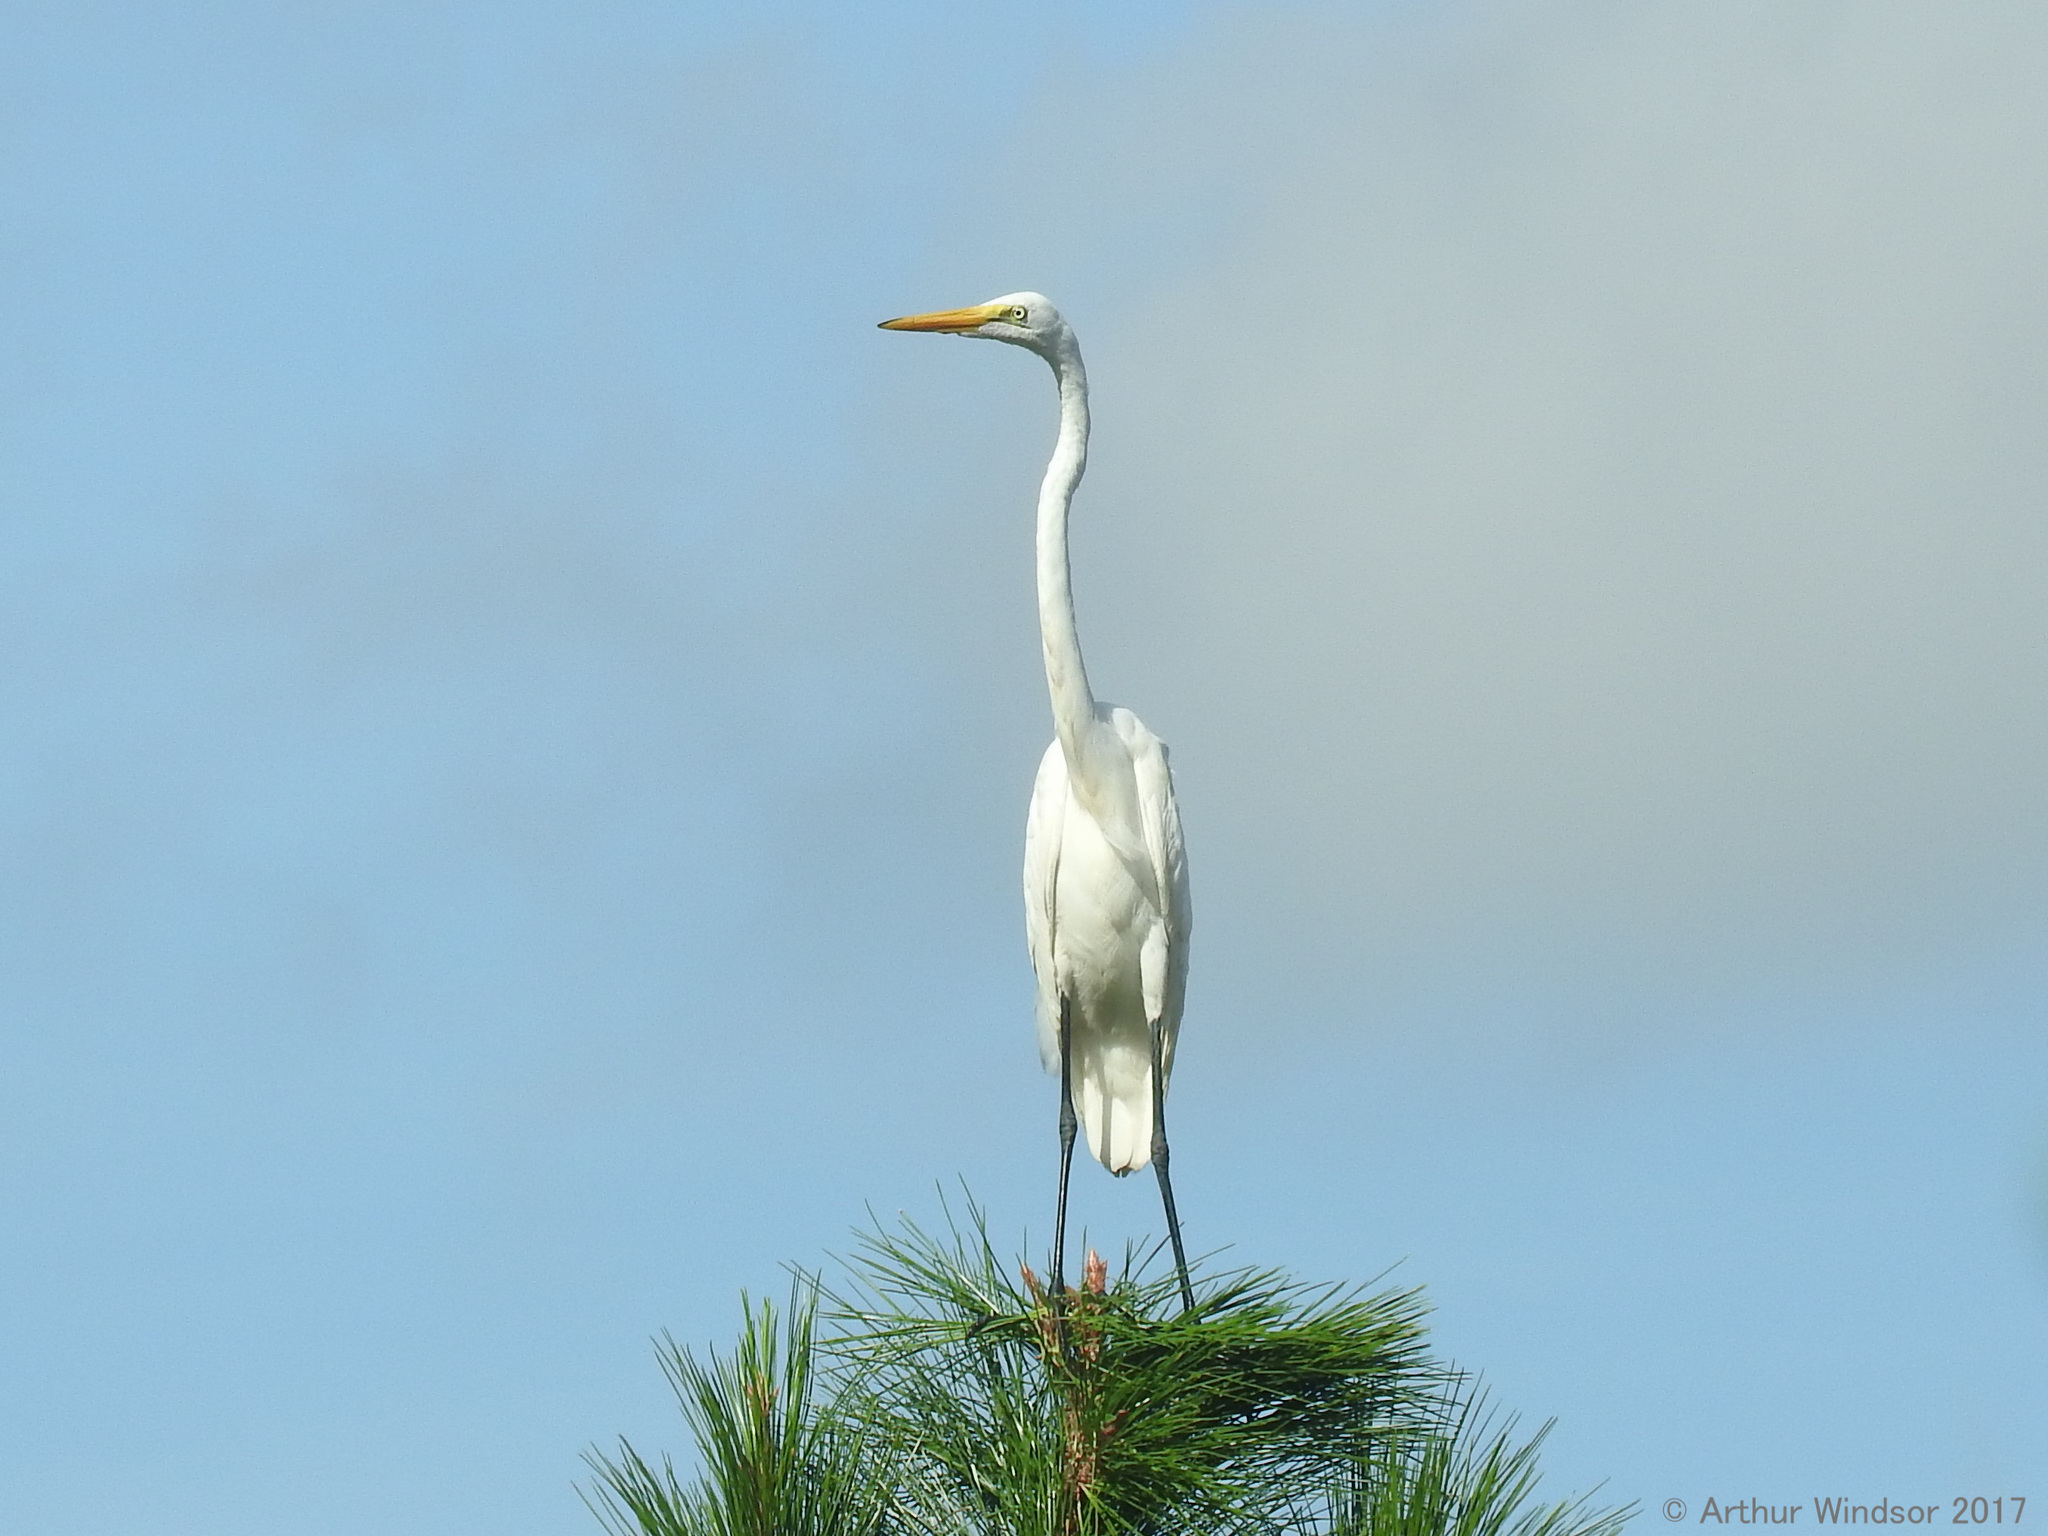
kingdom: Animalia
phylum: Chordata
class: Aves
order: Pelecaniformes
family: Ardeidae
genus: Ardea
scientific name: Ardea alba
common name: Great egret
